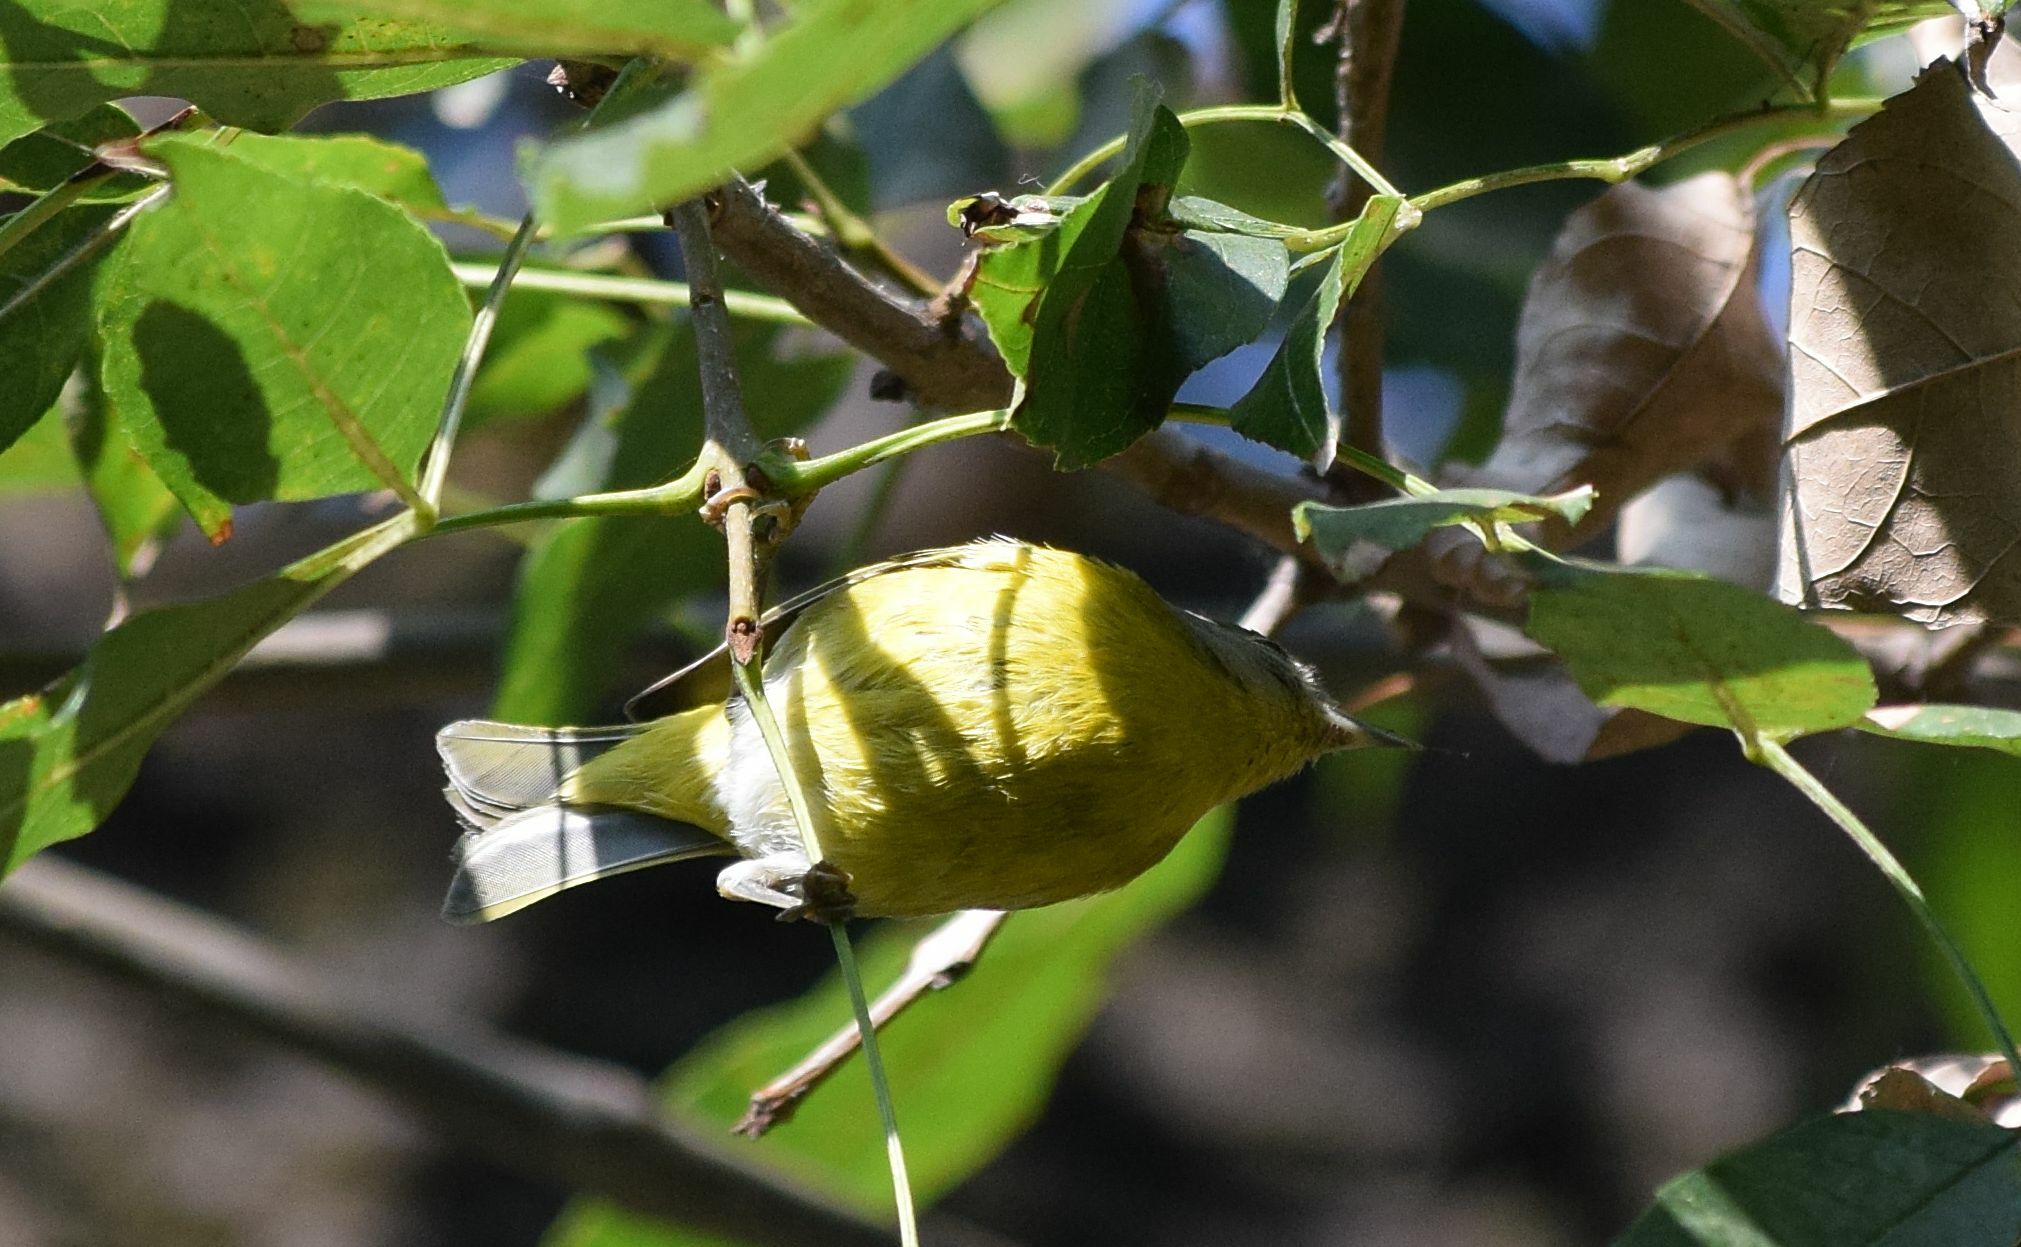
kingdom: Animalia
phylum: Chordata
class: Aves
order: Passeriformes
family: Parulidae
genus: Leiothlypis
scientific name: Leiothlypis ruficapilla
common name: Nashville warbler
